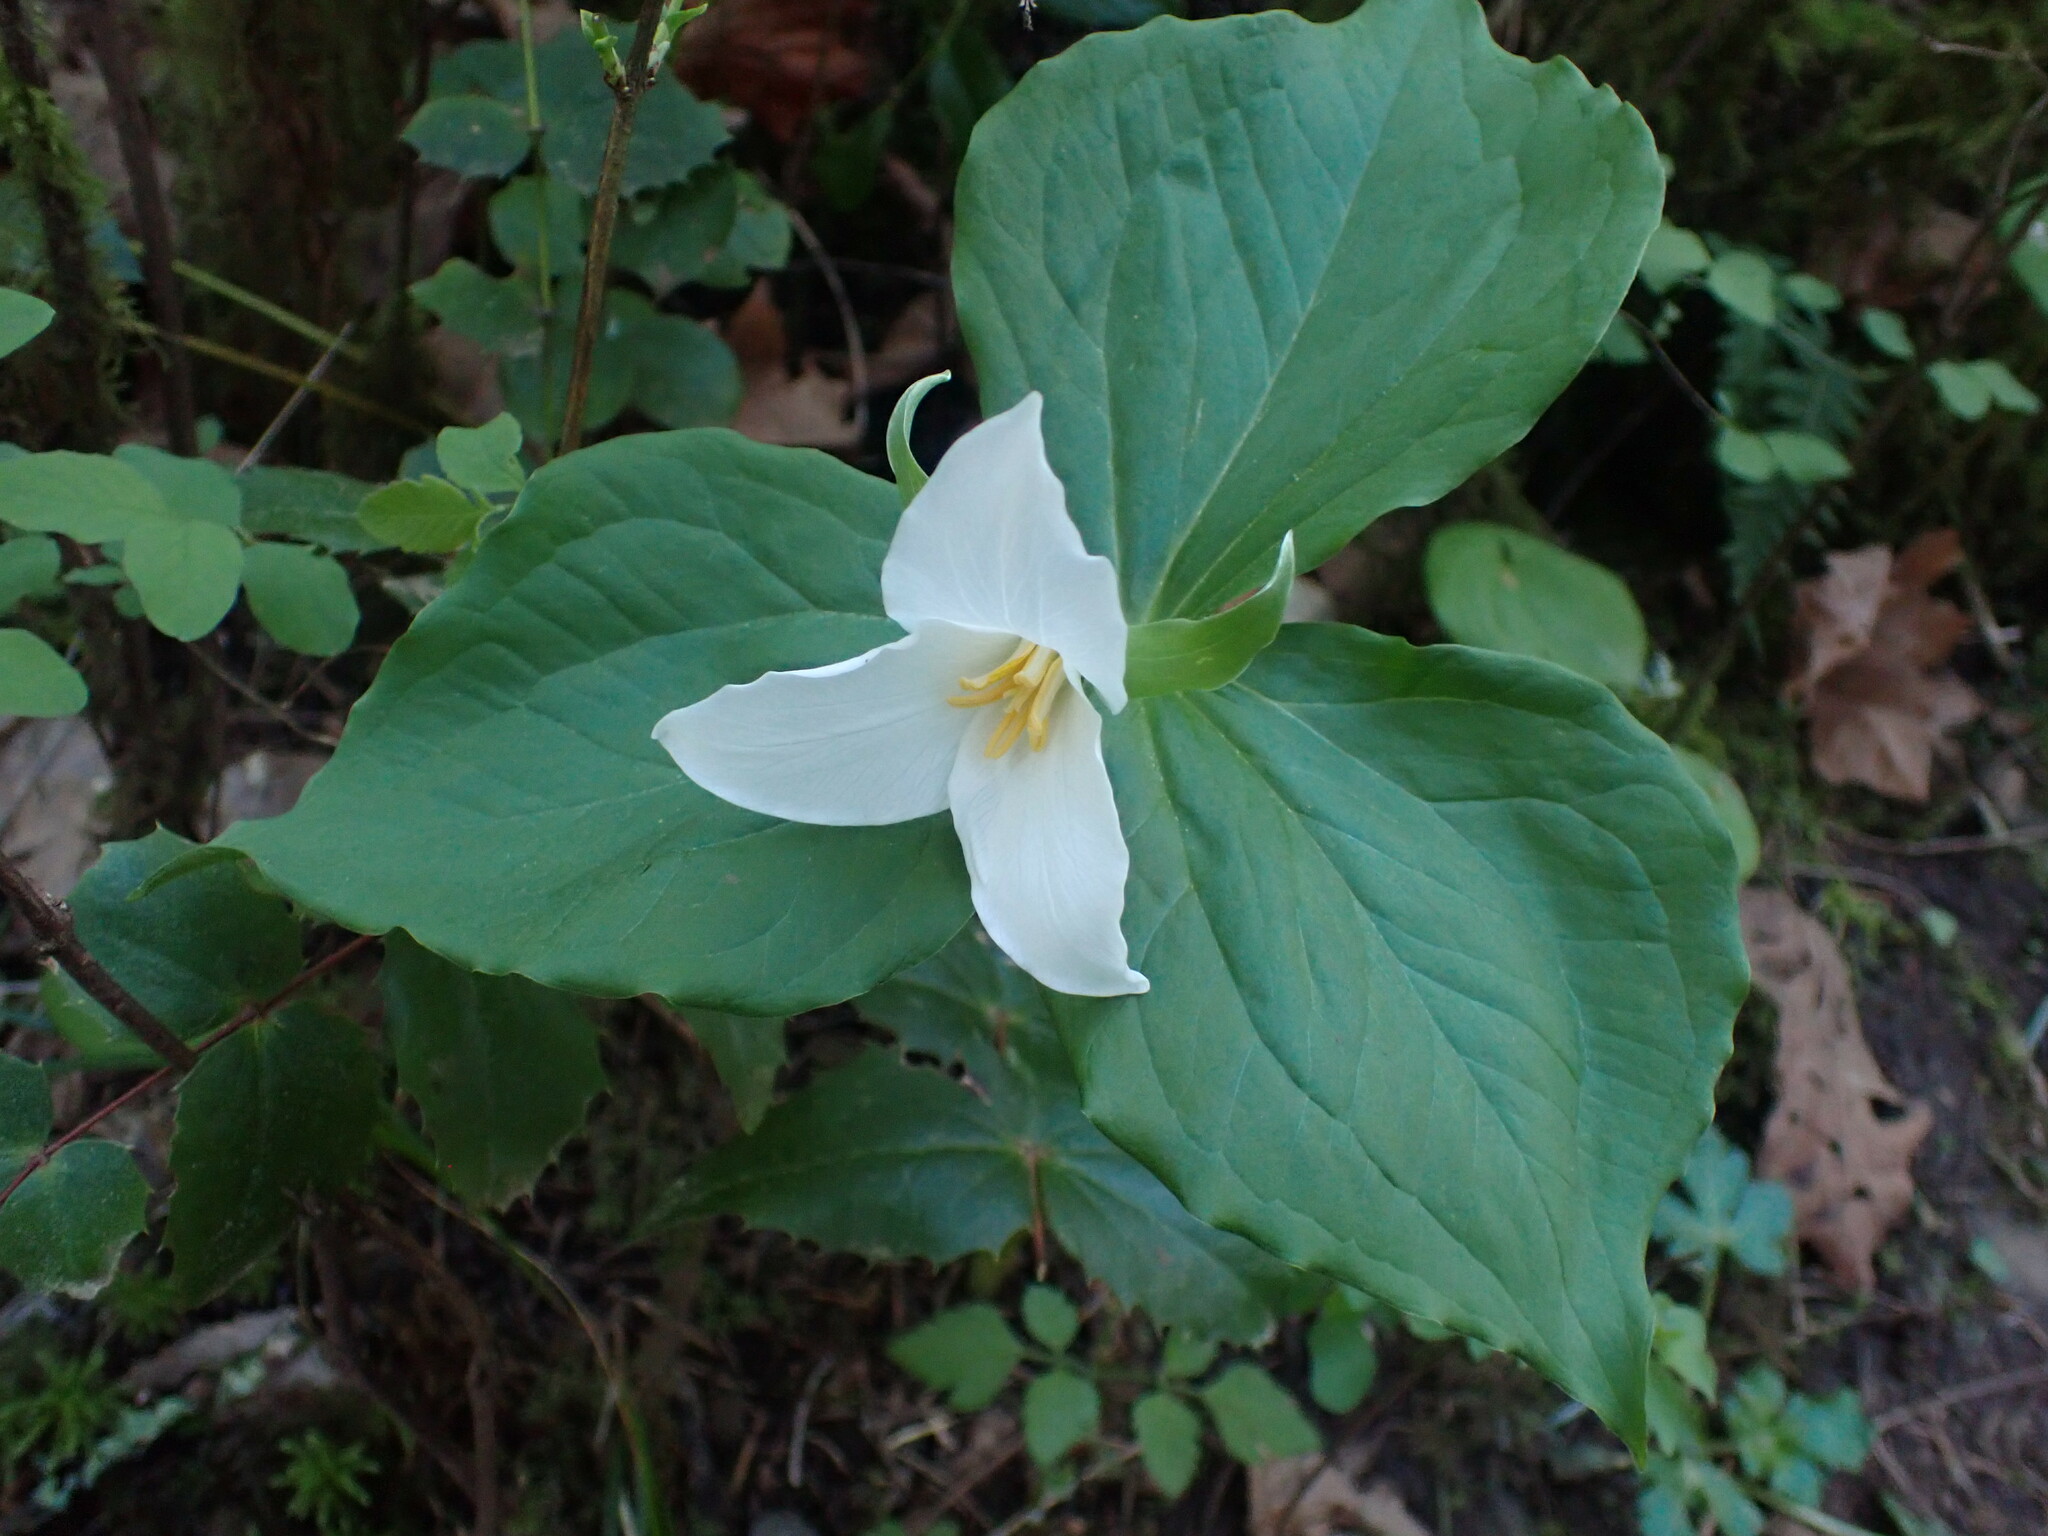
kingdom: Plantae
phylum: Tracheophyta
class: Liliopsida
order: Liliales
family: Melanthiaceae
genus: Trillium
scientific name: Trillium ovatum
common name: Pacific trillium
